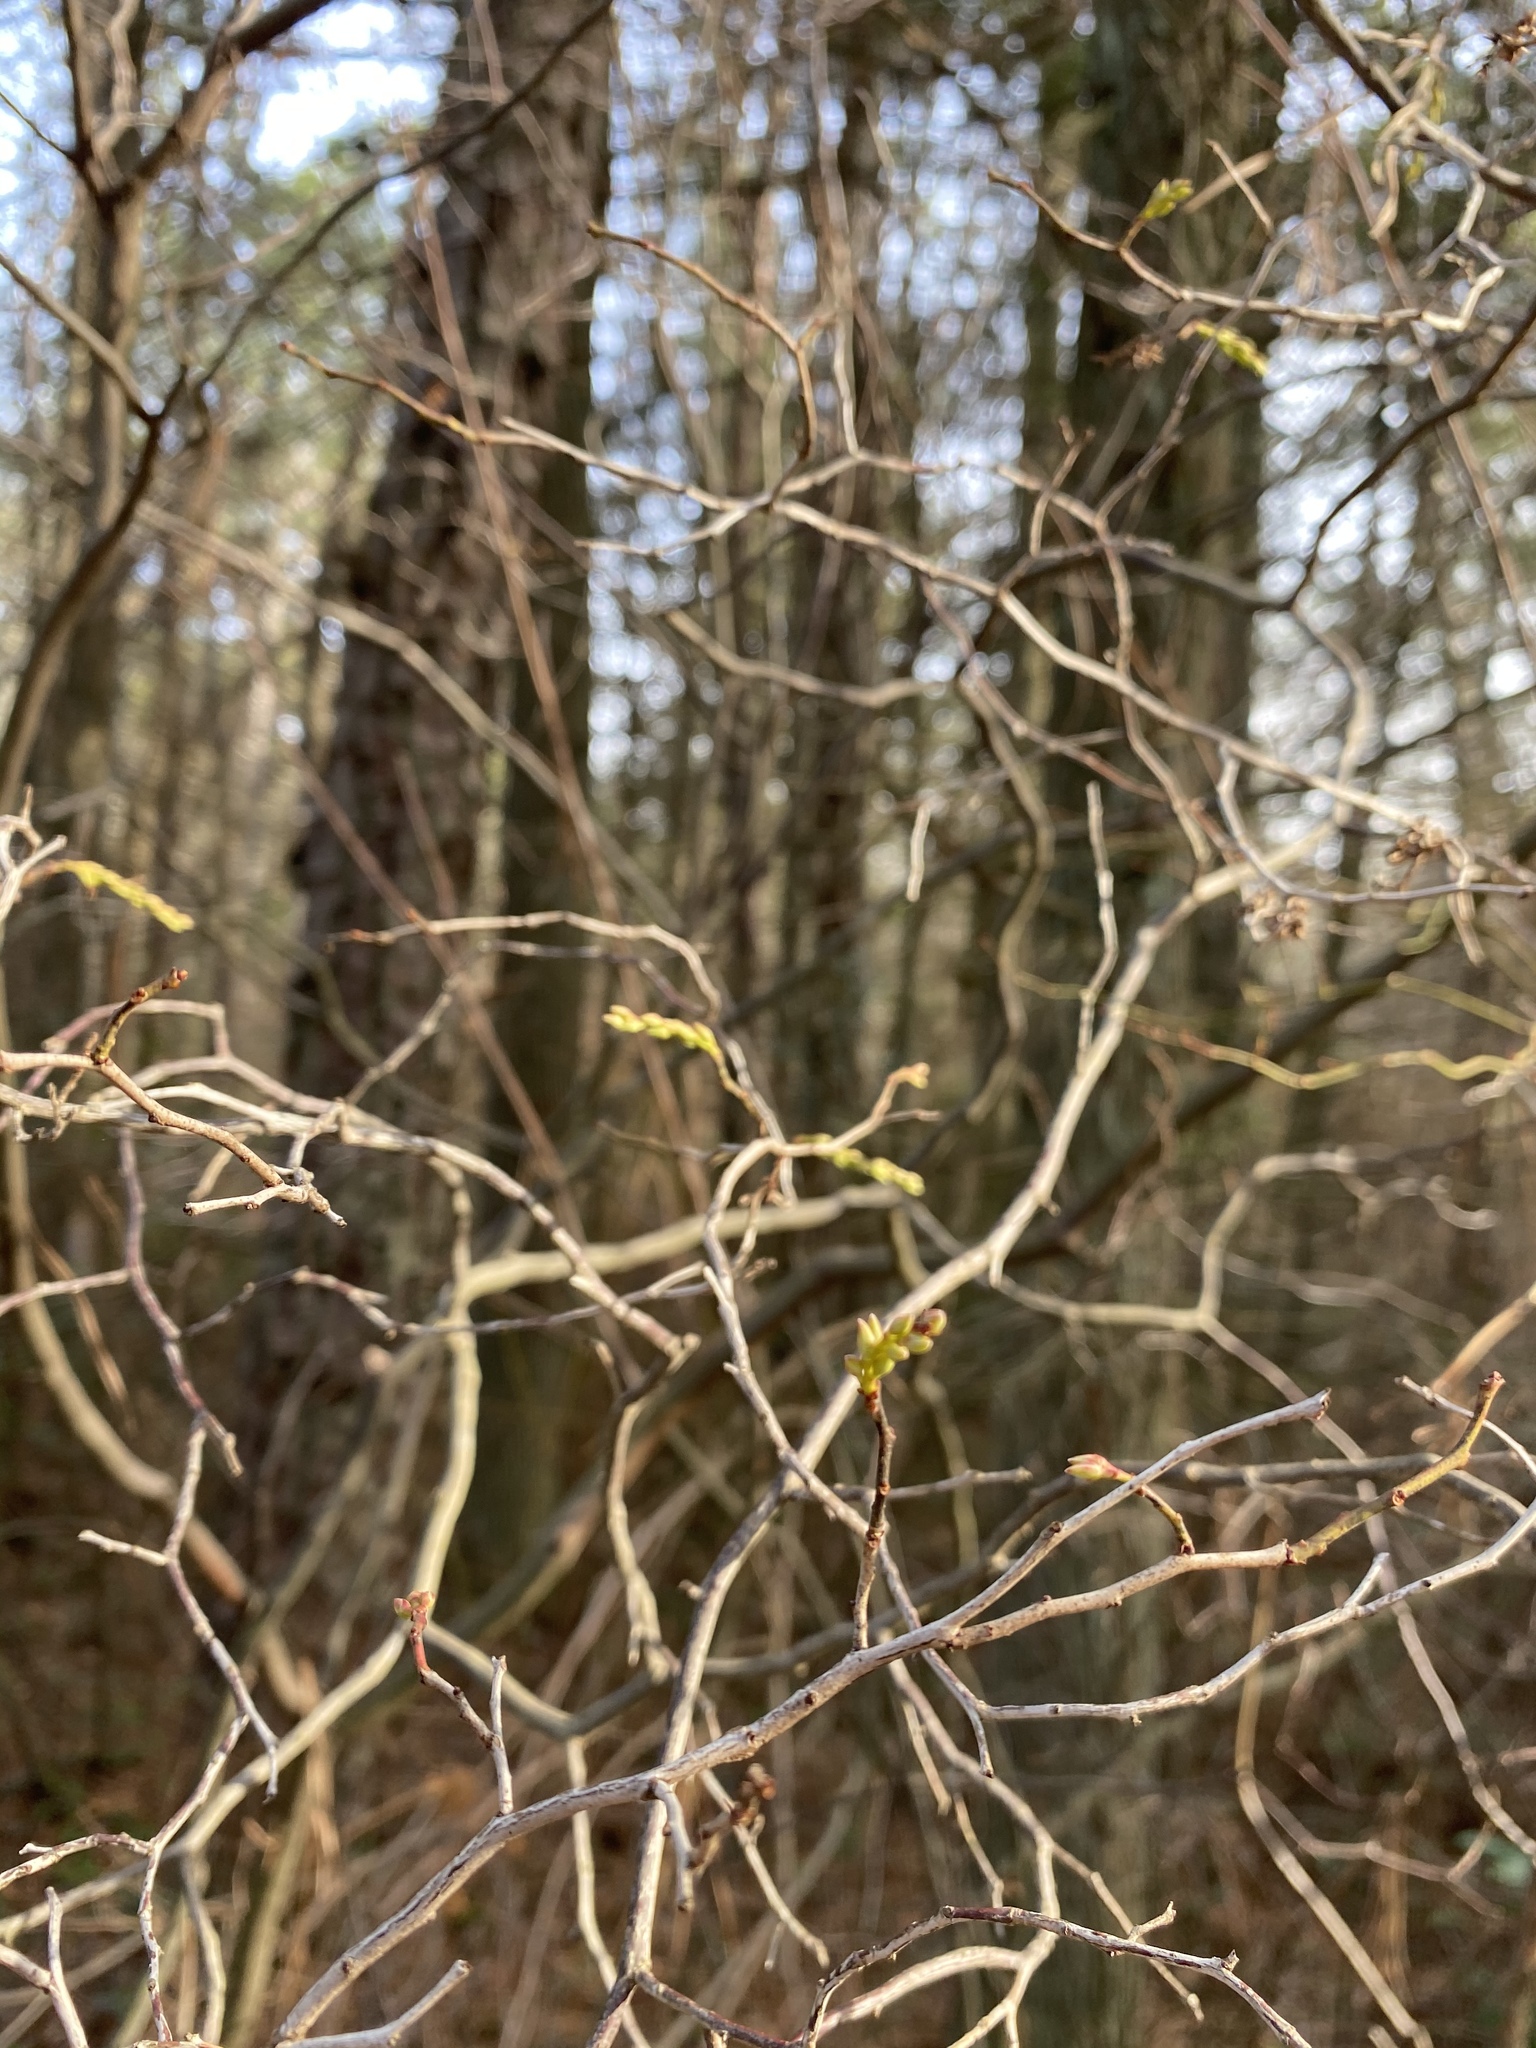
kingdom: Plantae
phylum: Tracheophyta
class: Magnoliopsida
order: Ericales
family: Ericaceae
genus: Eubotrys
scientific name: Eubotrys racemosa
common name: Fetterbush
